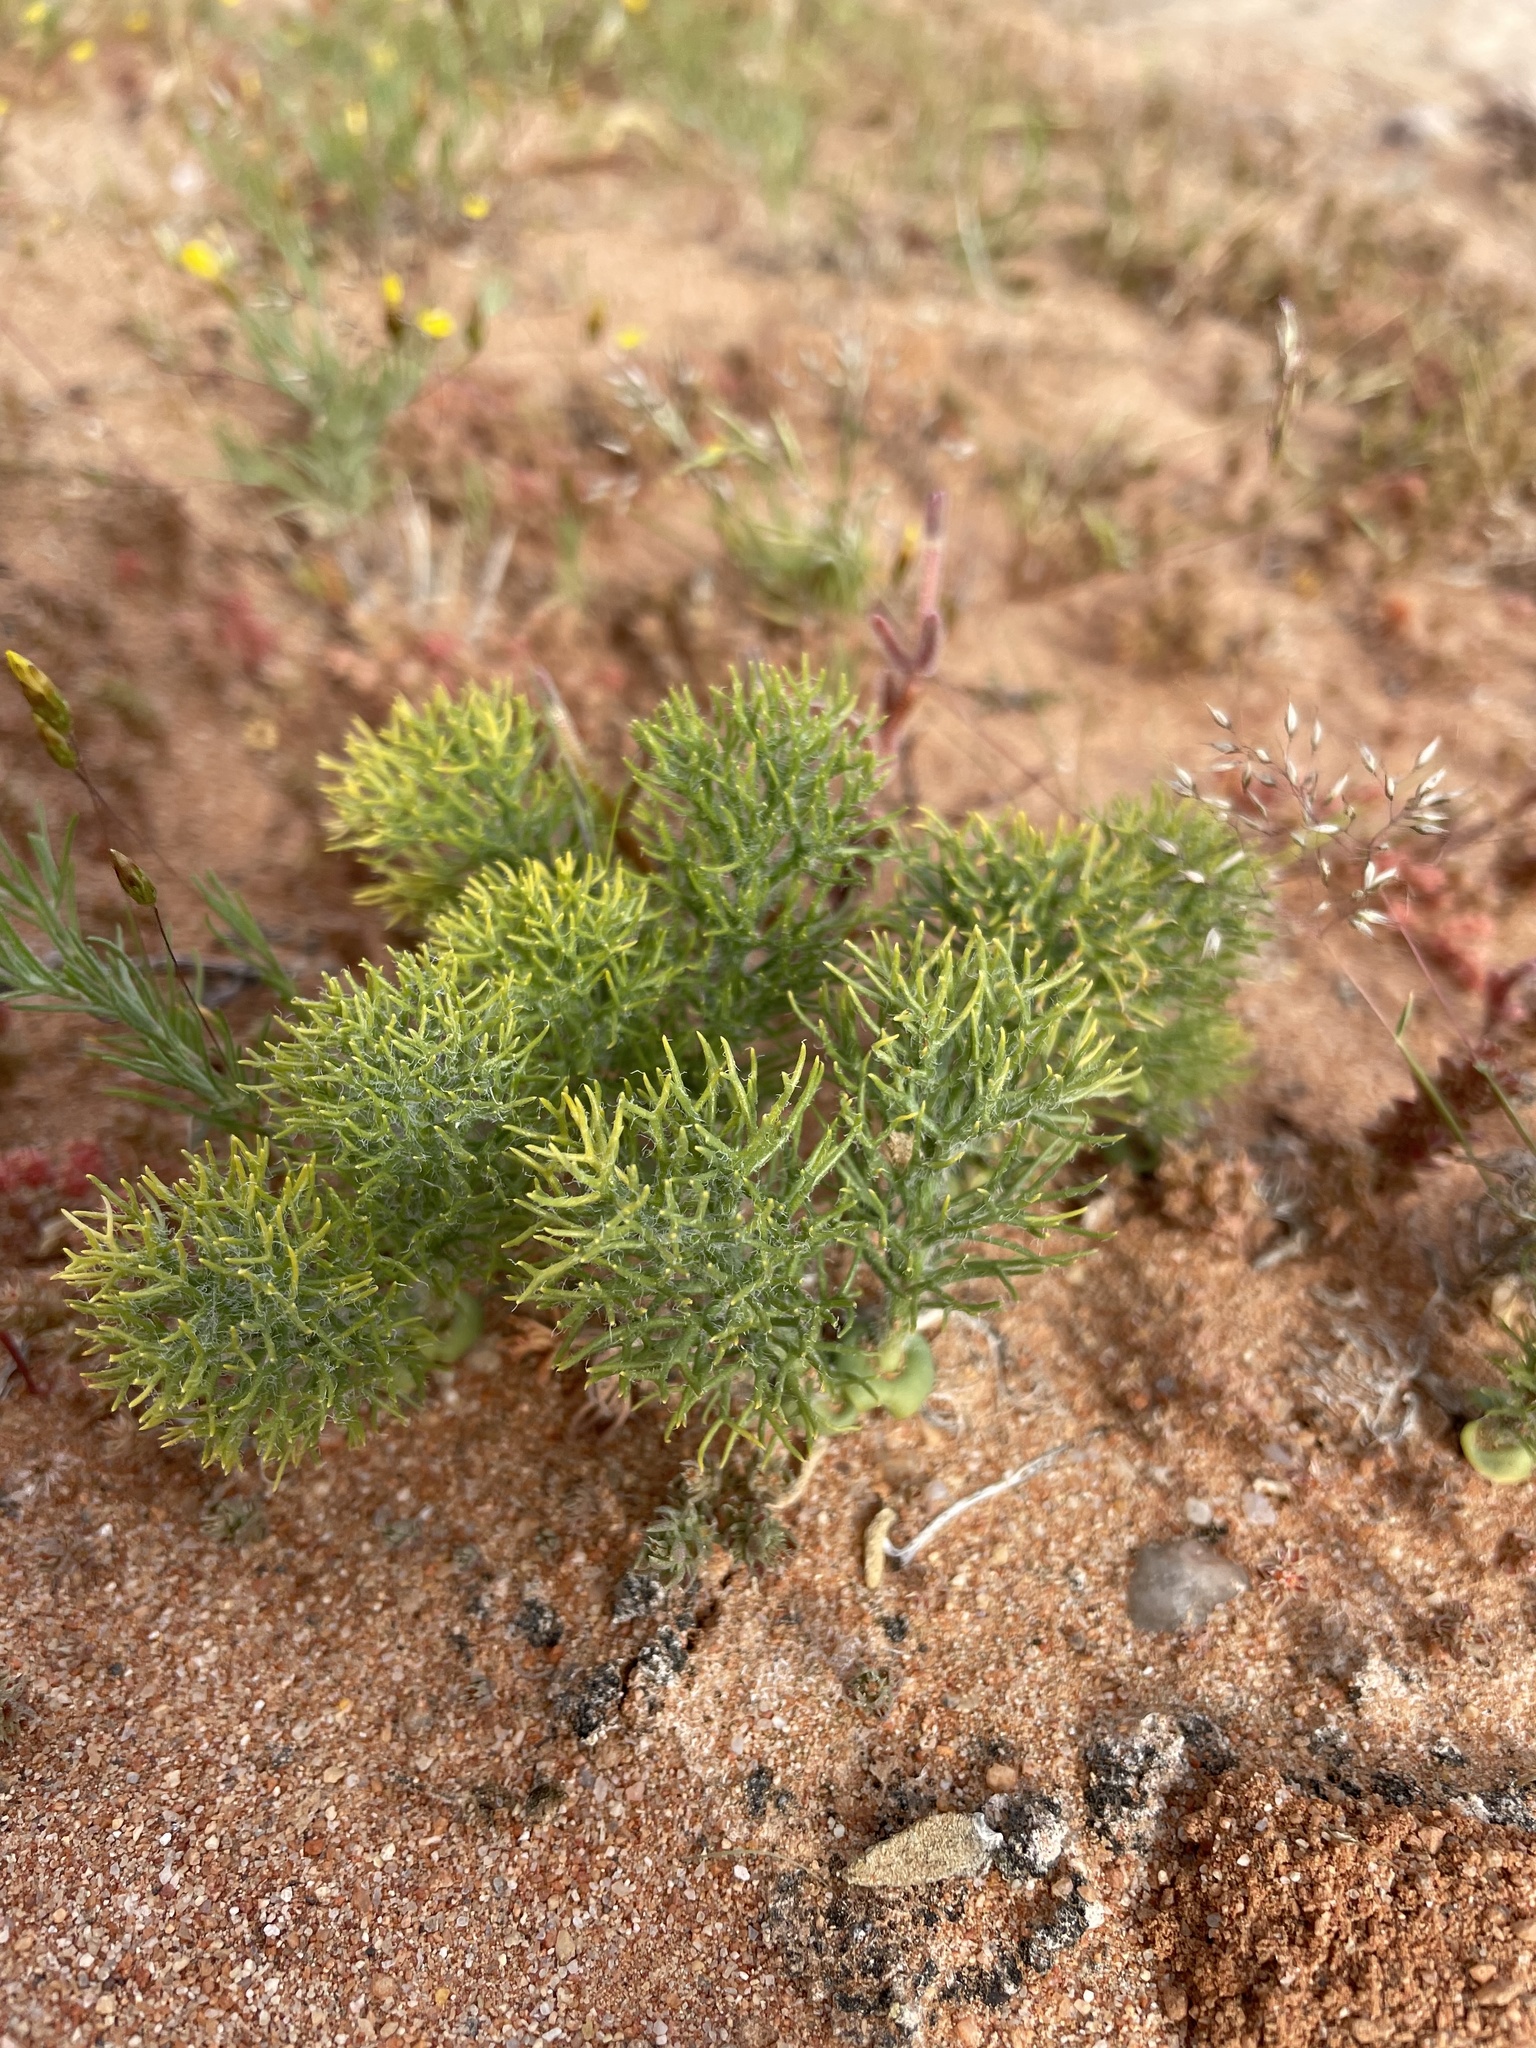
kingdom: Plantae
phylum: Tracheophyta
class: Liliopsida
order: Asparagales
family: Asparagaceae
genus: Eriospermum
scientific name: Eriospermum paradoxum
